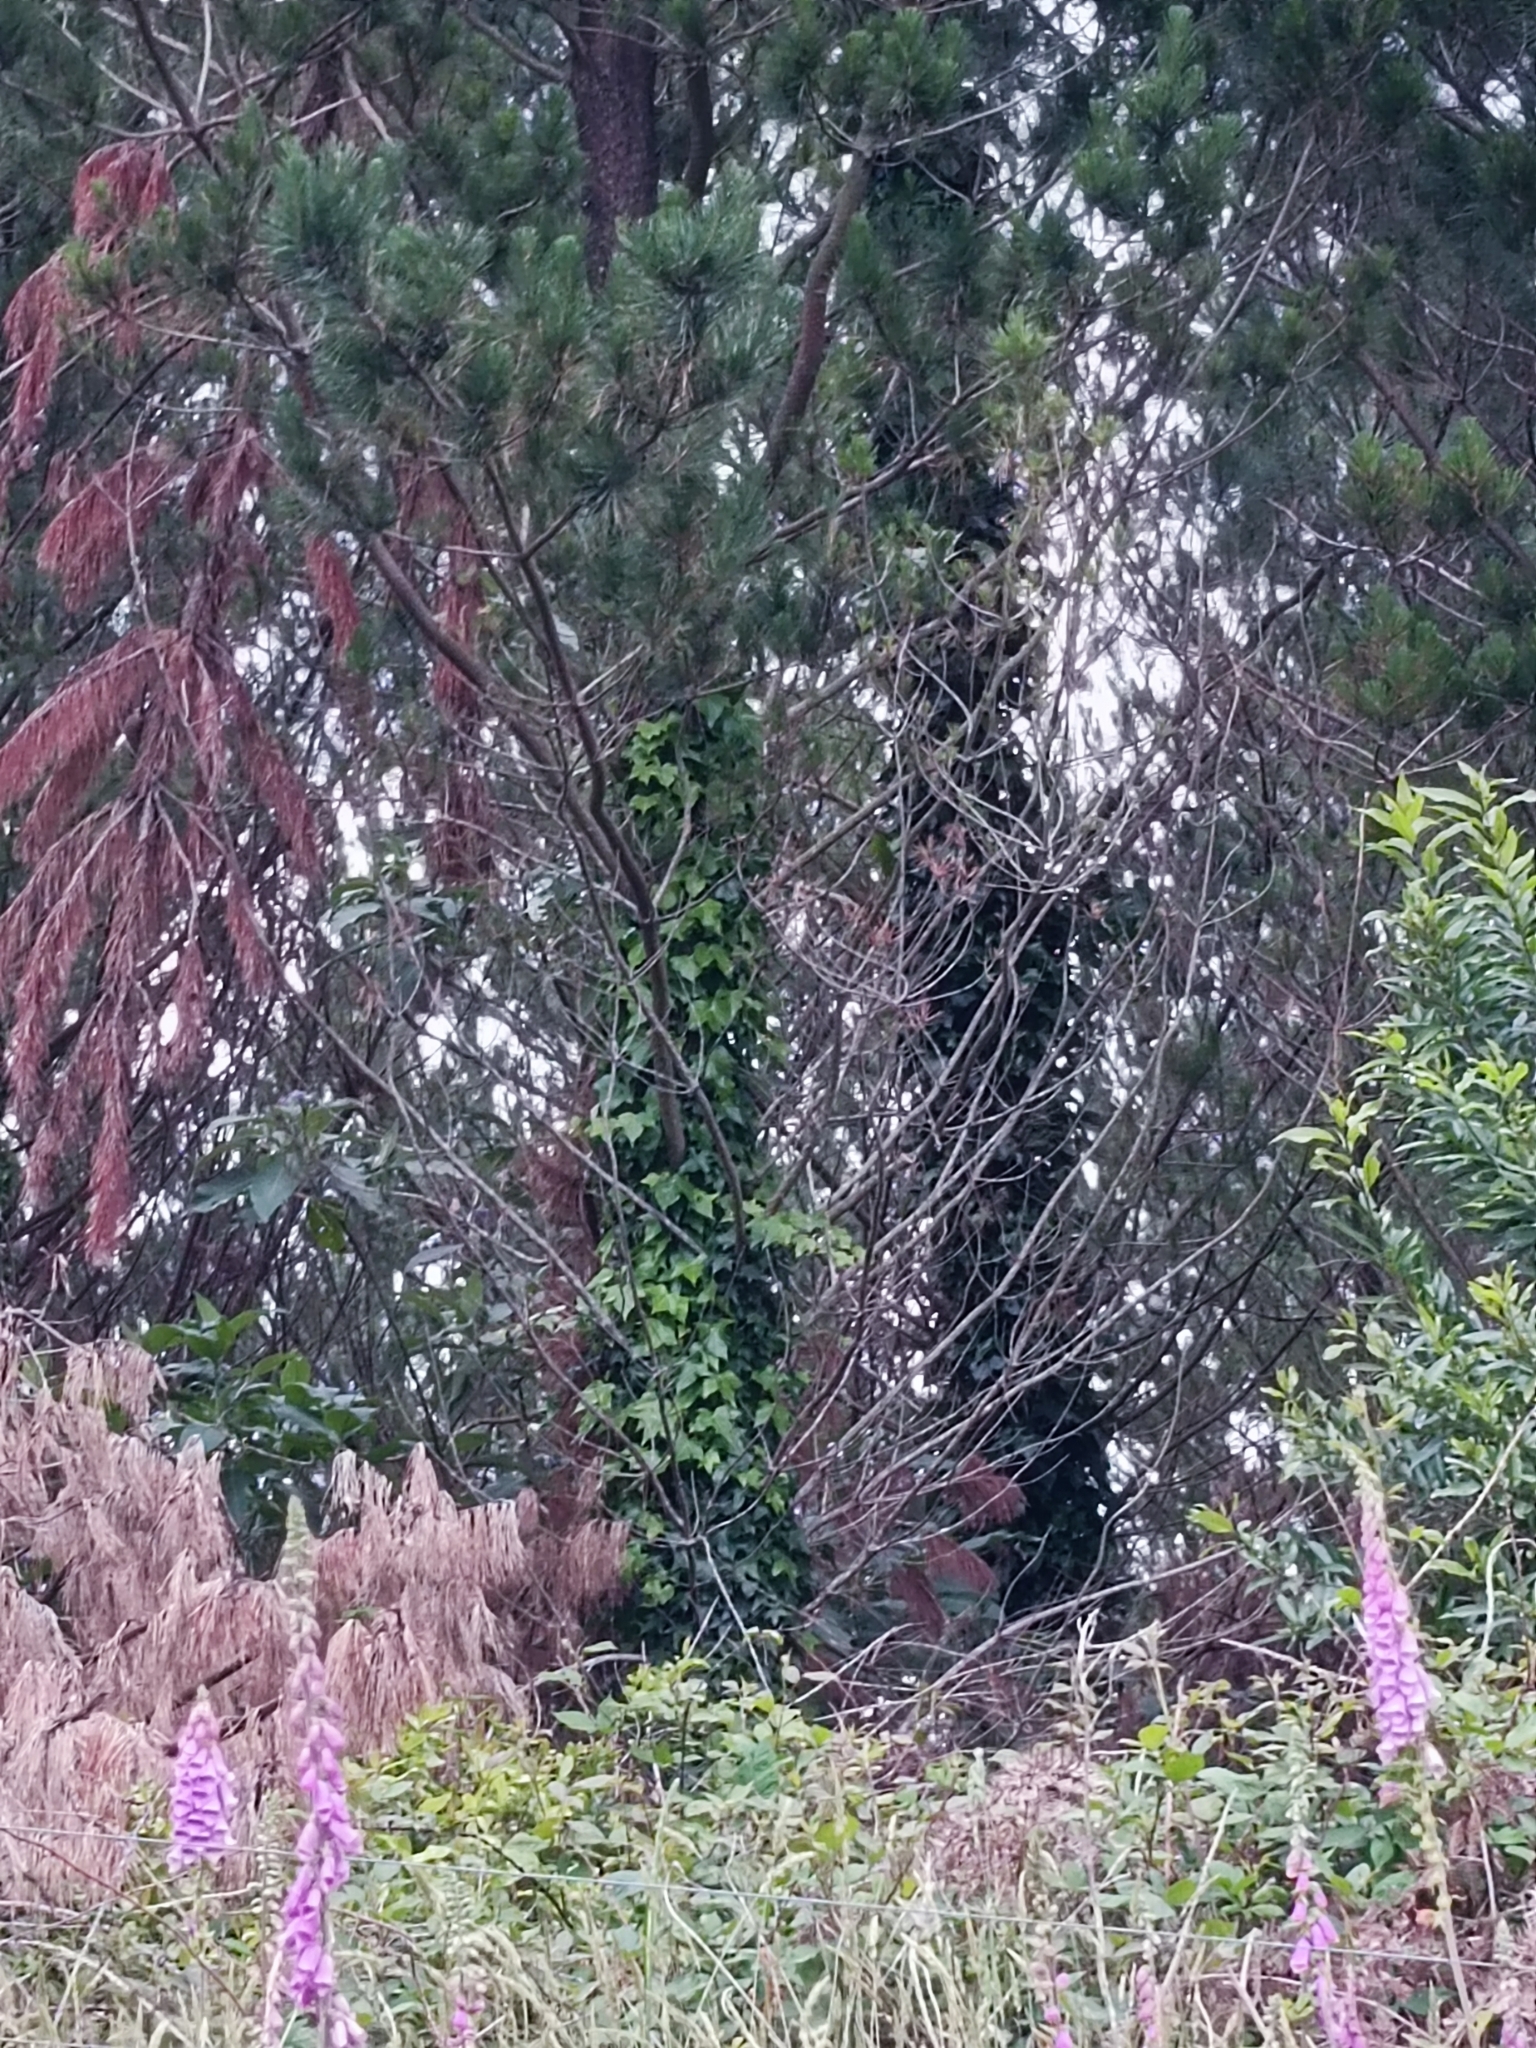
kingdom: Plantae
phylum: Tracheophyta
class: Magnoliopsida
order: Apiales
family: Araliaceae
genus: Hedera
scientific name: Hedera helix
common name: Ivy
